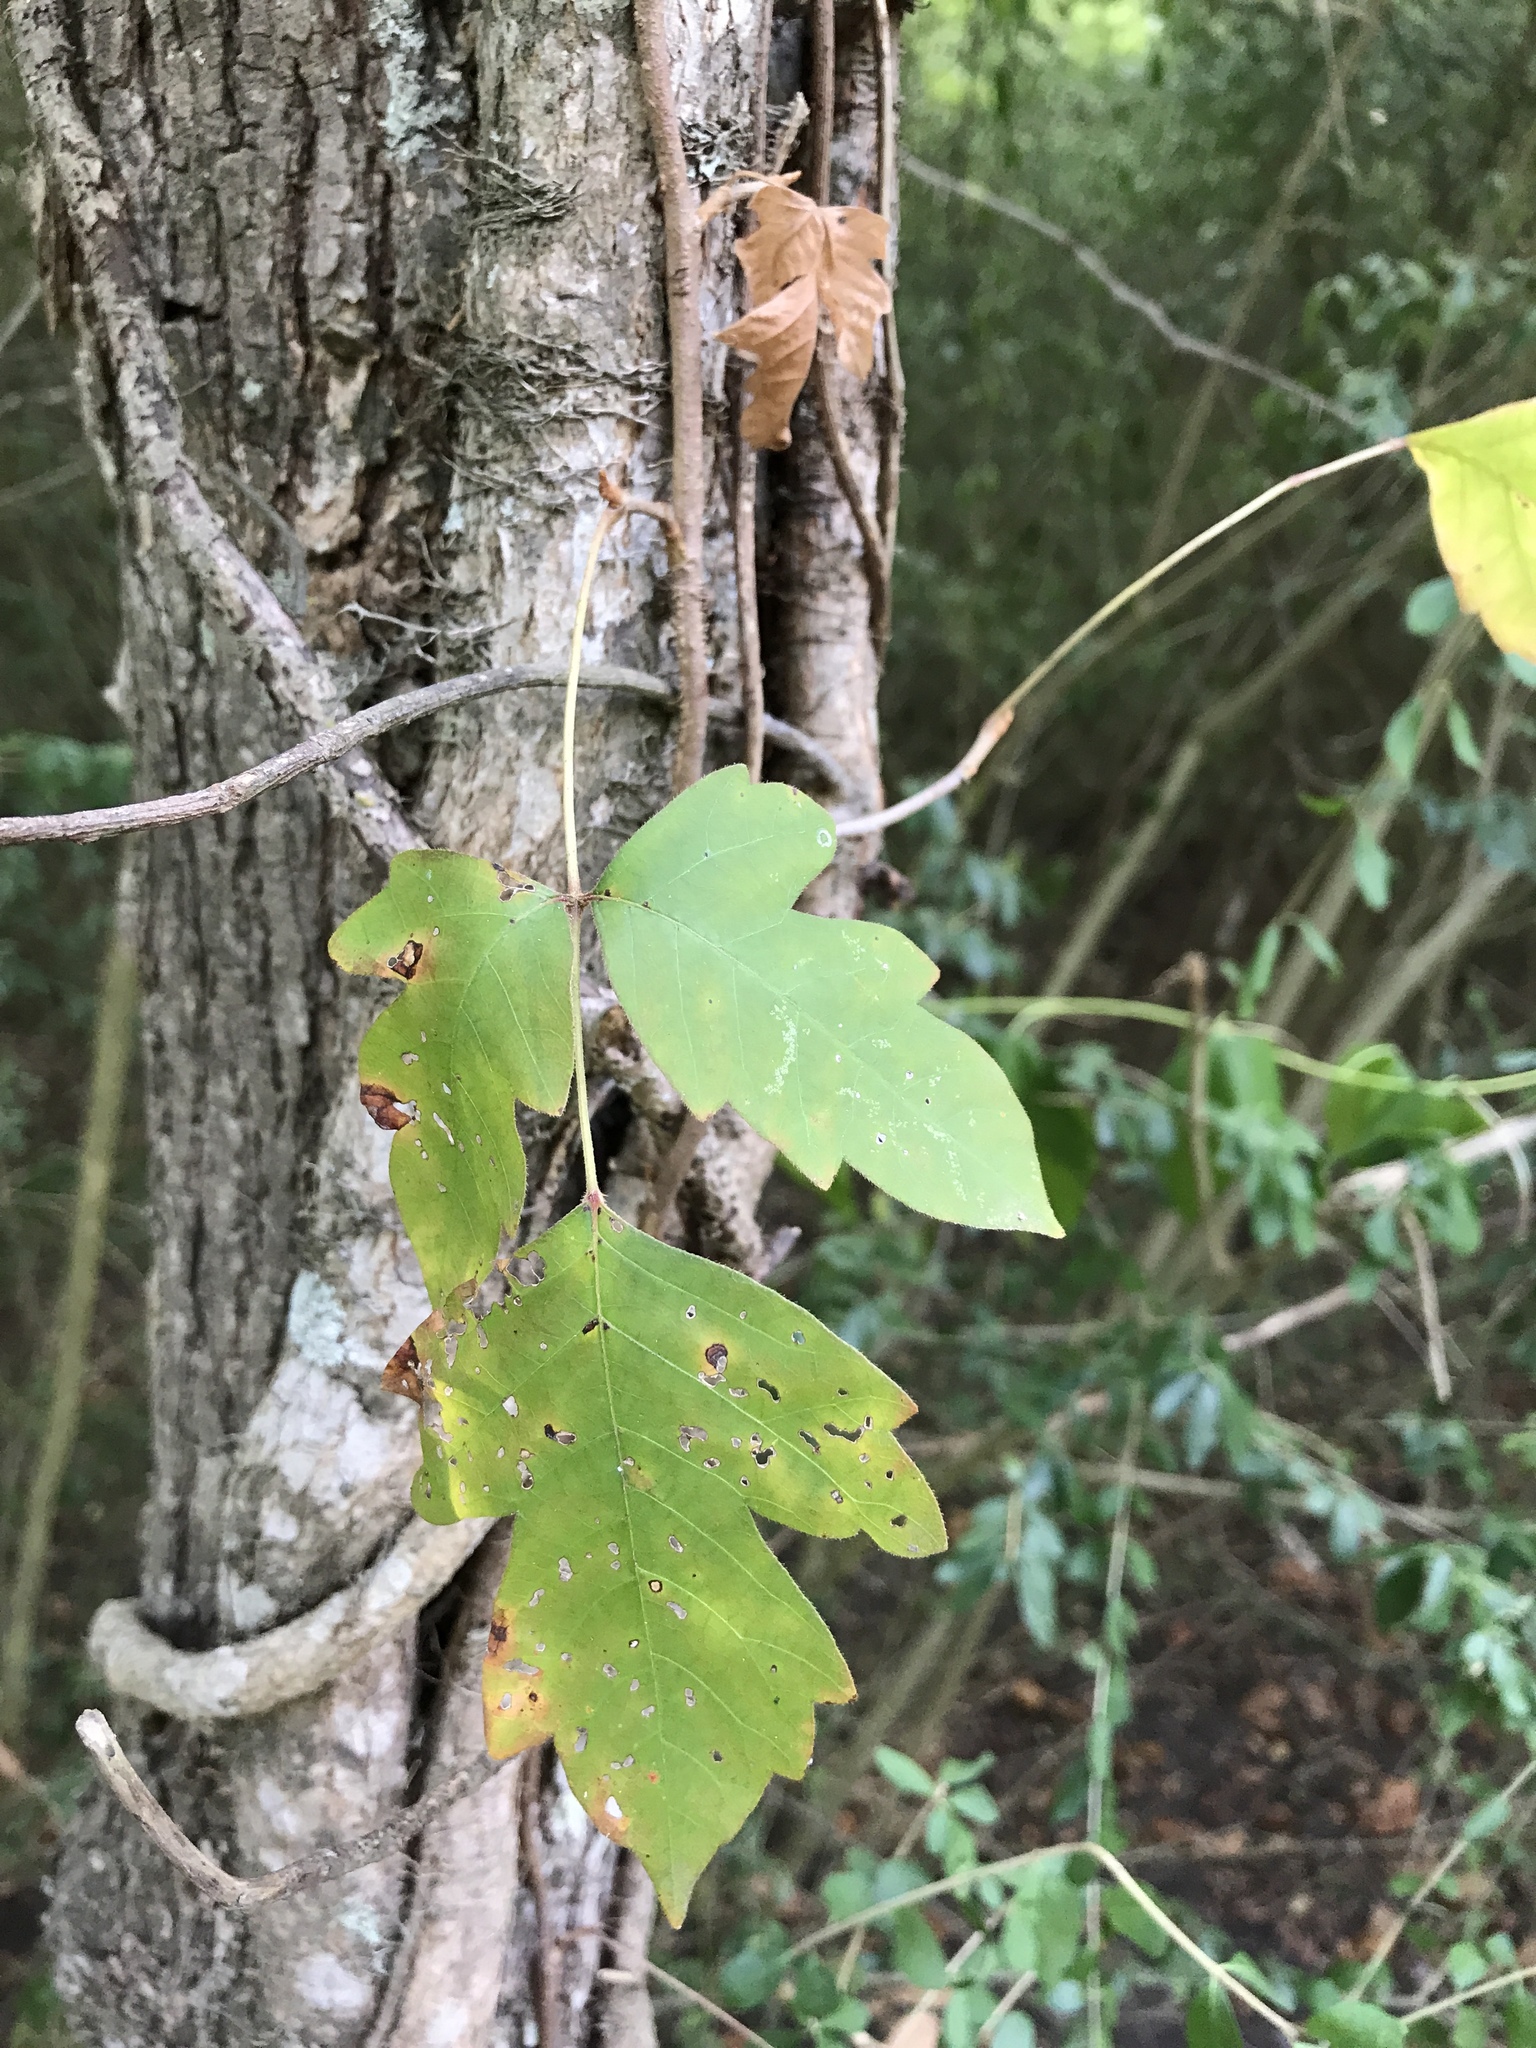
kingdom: Plantae
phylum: Tracheophyta
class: Magnoliopsida
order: Sapindales
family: Anacardiaceae
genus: Toxicodendron
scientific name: Toxicodendron radicans
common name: Poison ivy
